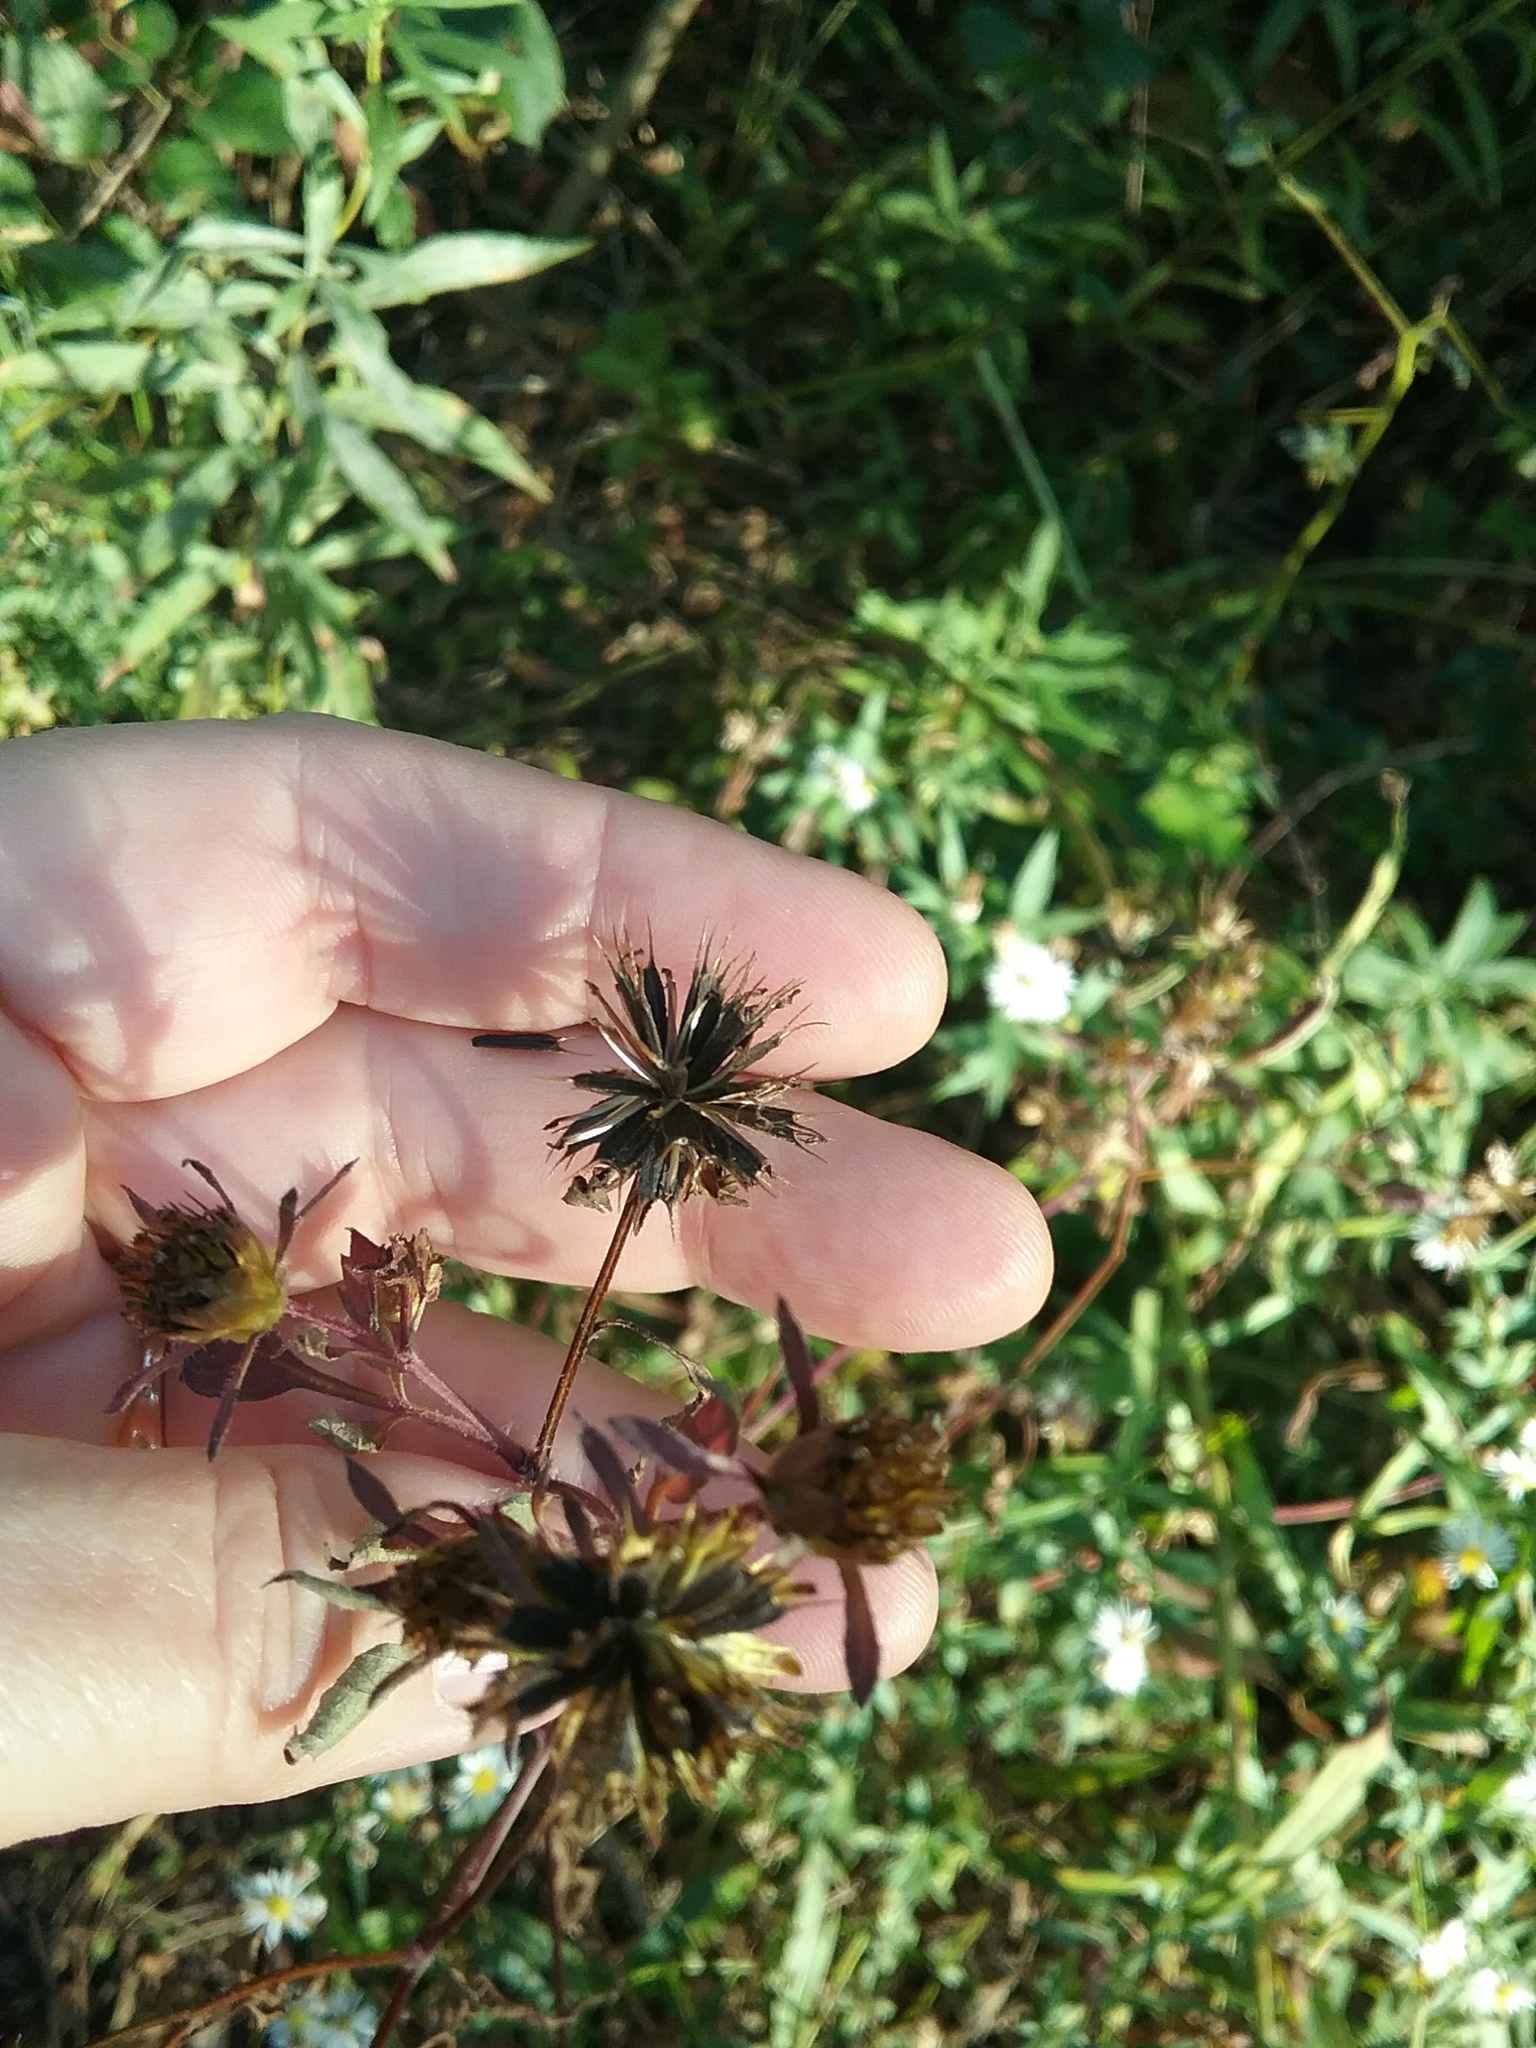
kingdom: Plantae
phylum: Tracheophyta
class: Magnoliopsida
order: Asterales
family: Asteraceae
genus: Bidens
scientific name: Bidens frondosa
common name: Beggarticks
